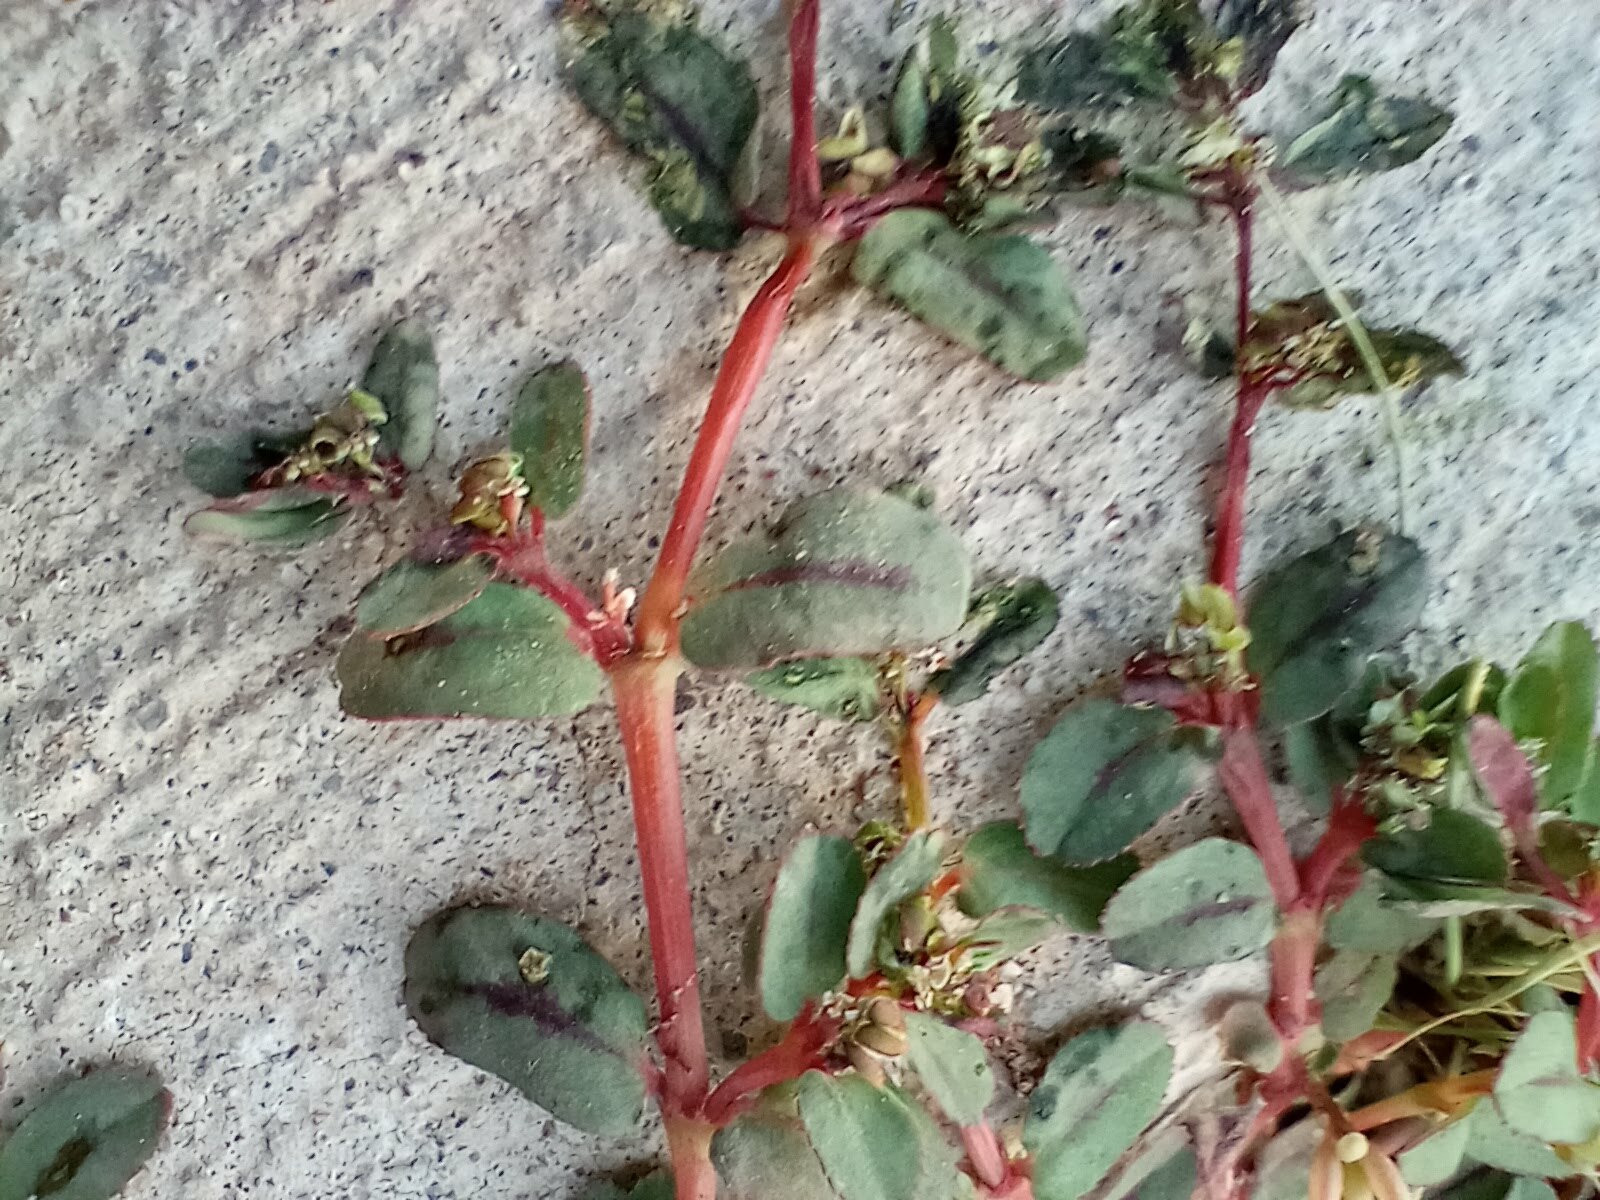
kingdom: Plantae
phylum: Tracheophyta
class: Magnoliopsida
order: Malpighiales
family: Euphorbiaceae
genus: Euphorbia
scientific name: Euphorbia serpillifolia
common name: Thyme-leaf spurge
